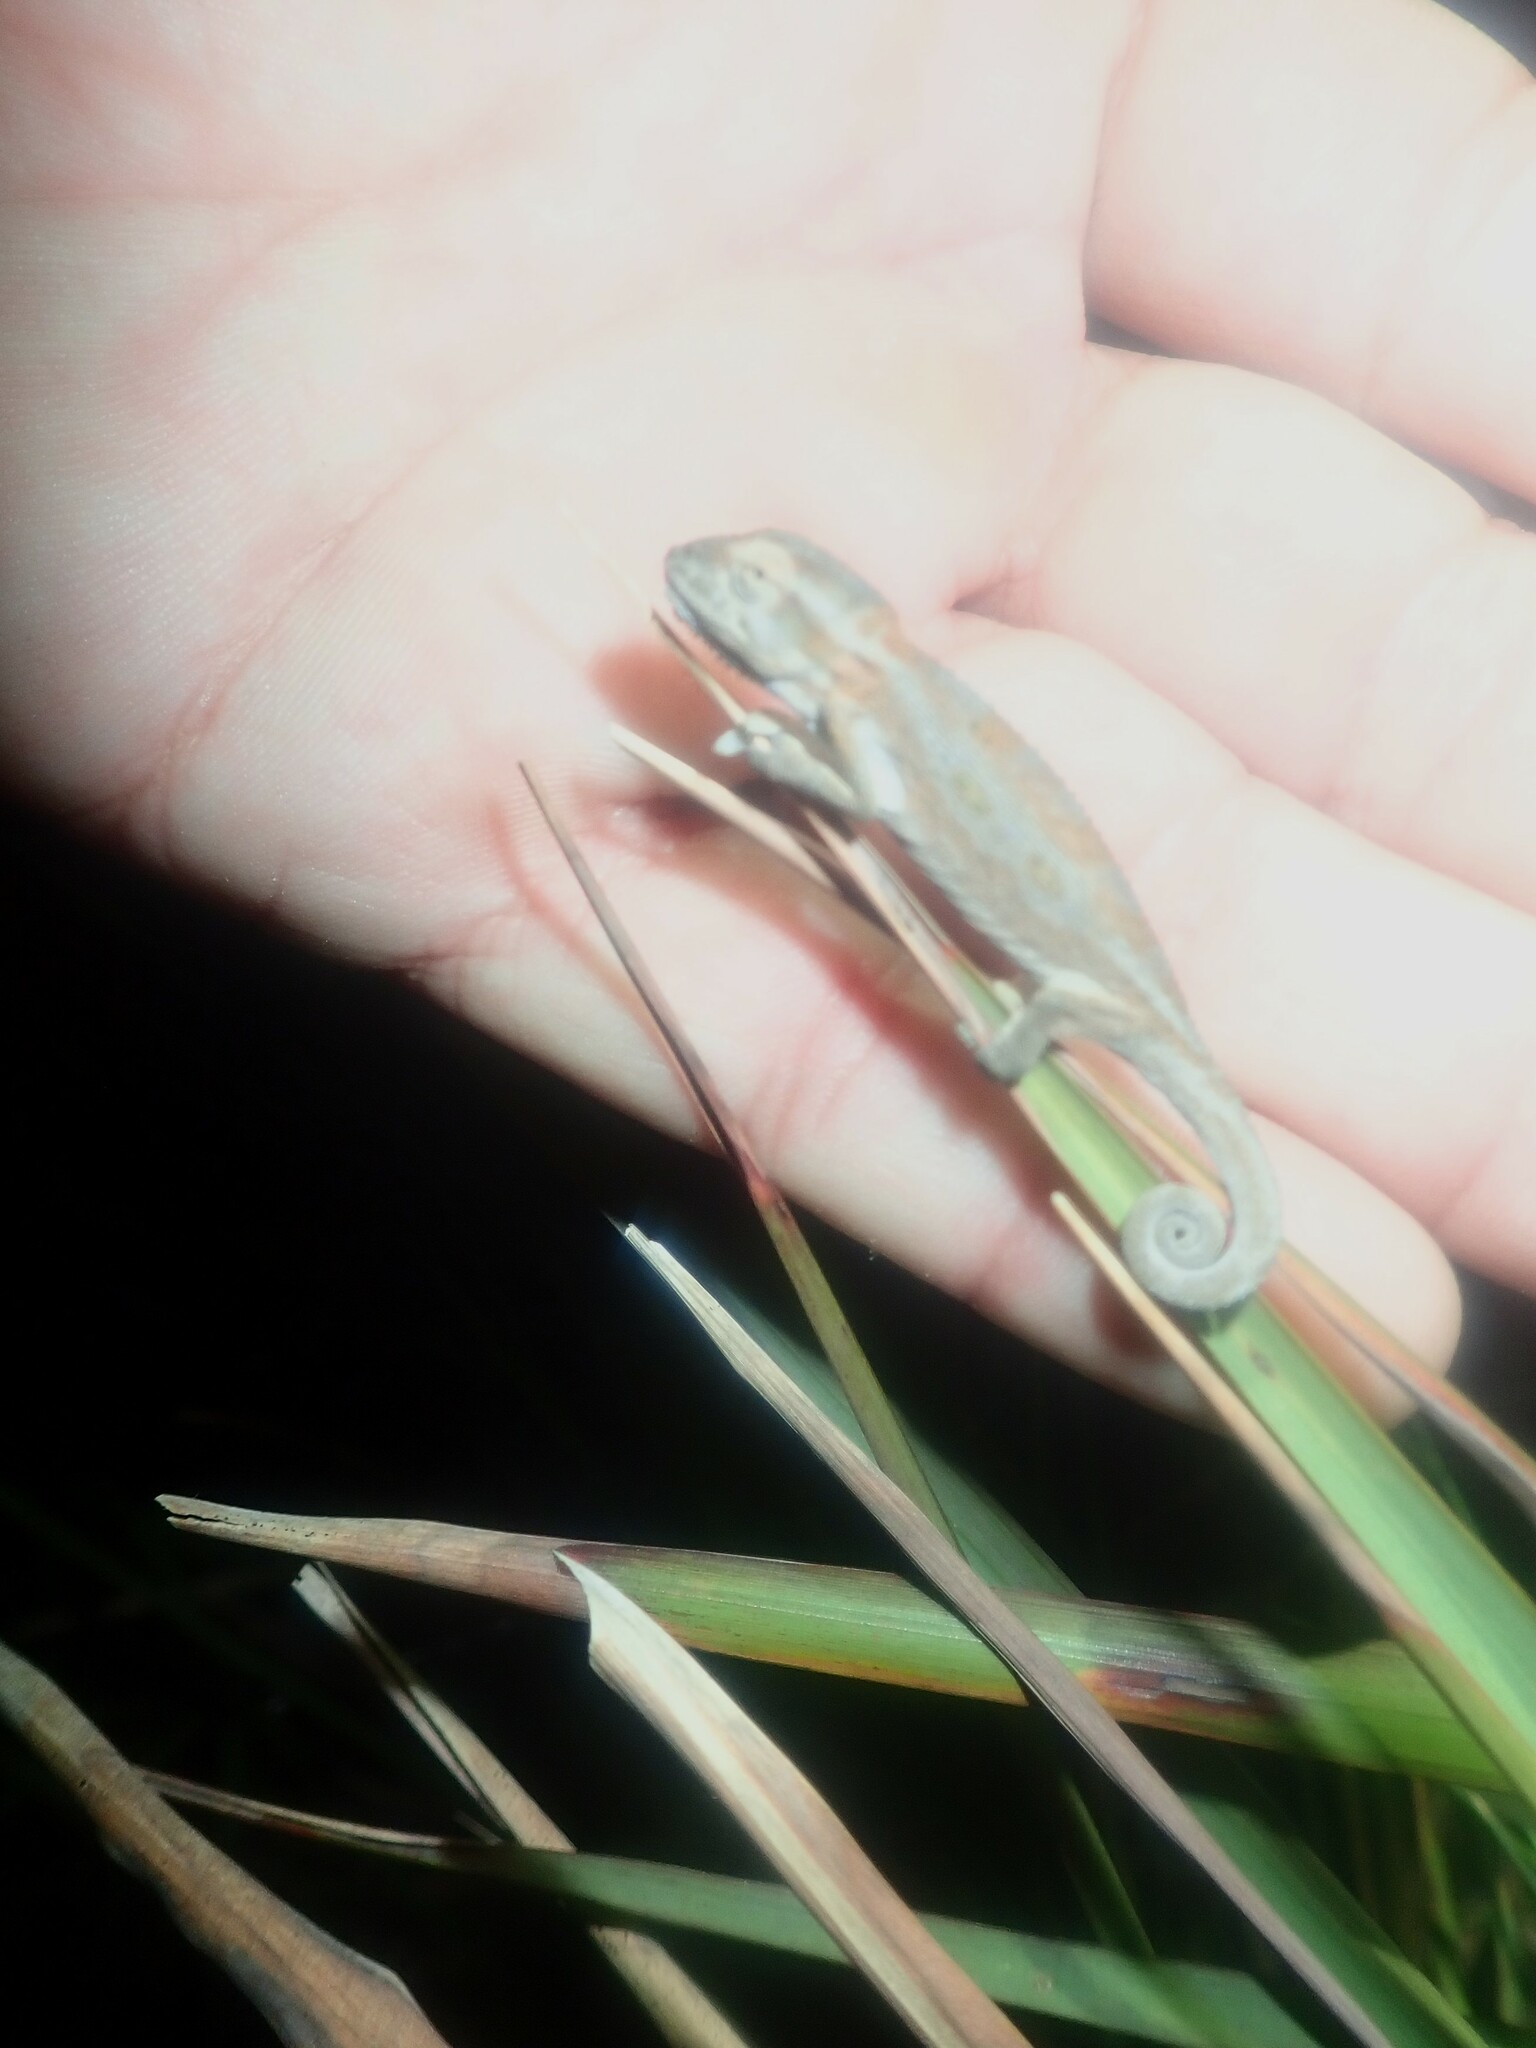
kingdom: Animalia
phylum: Chordata
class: Squamata
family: Chamaeleonidae
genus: Bradypodion
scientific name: Bradypodion pumilum
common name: Cape dwarf chameleon
